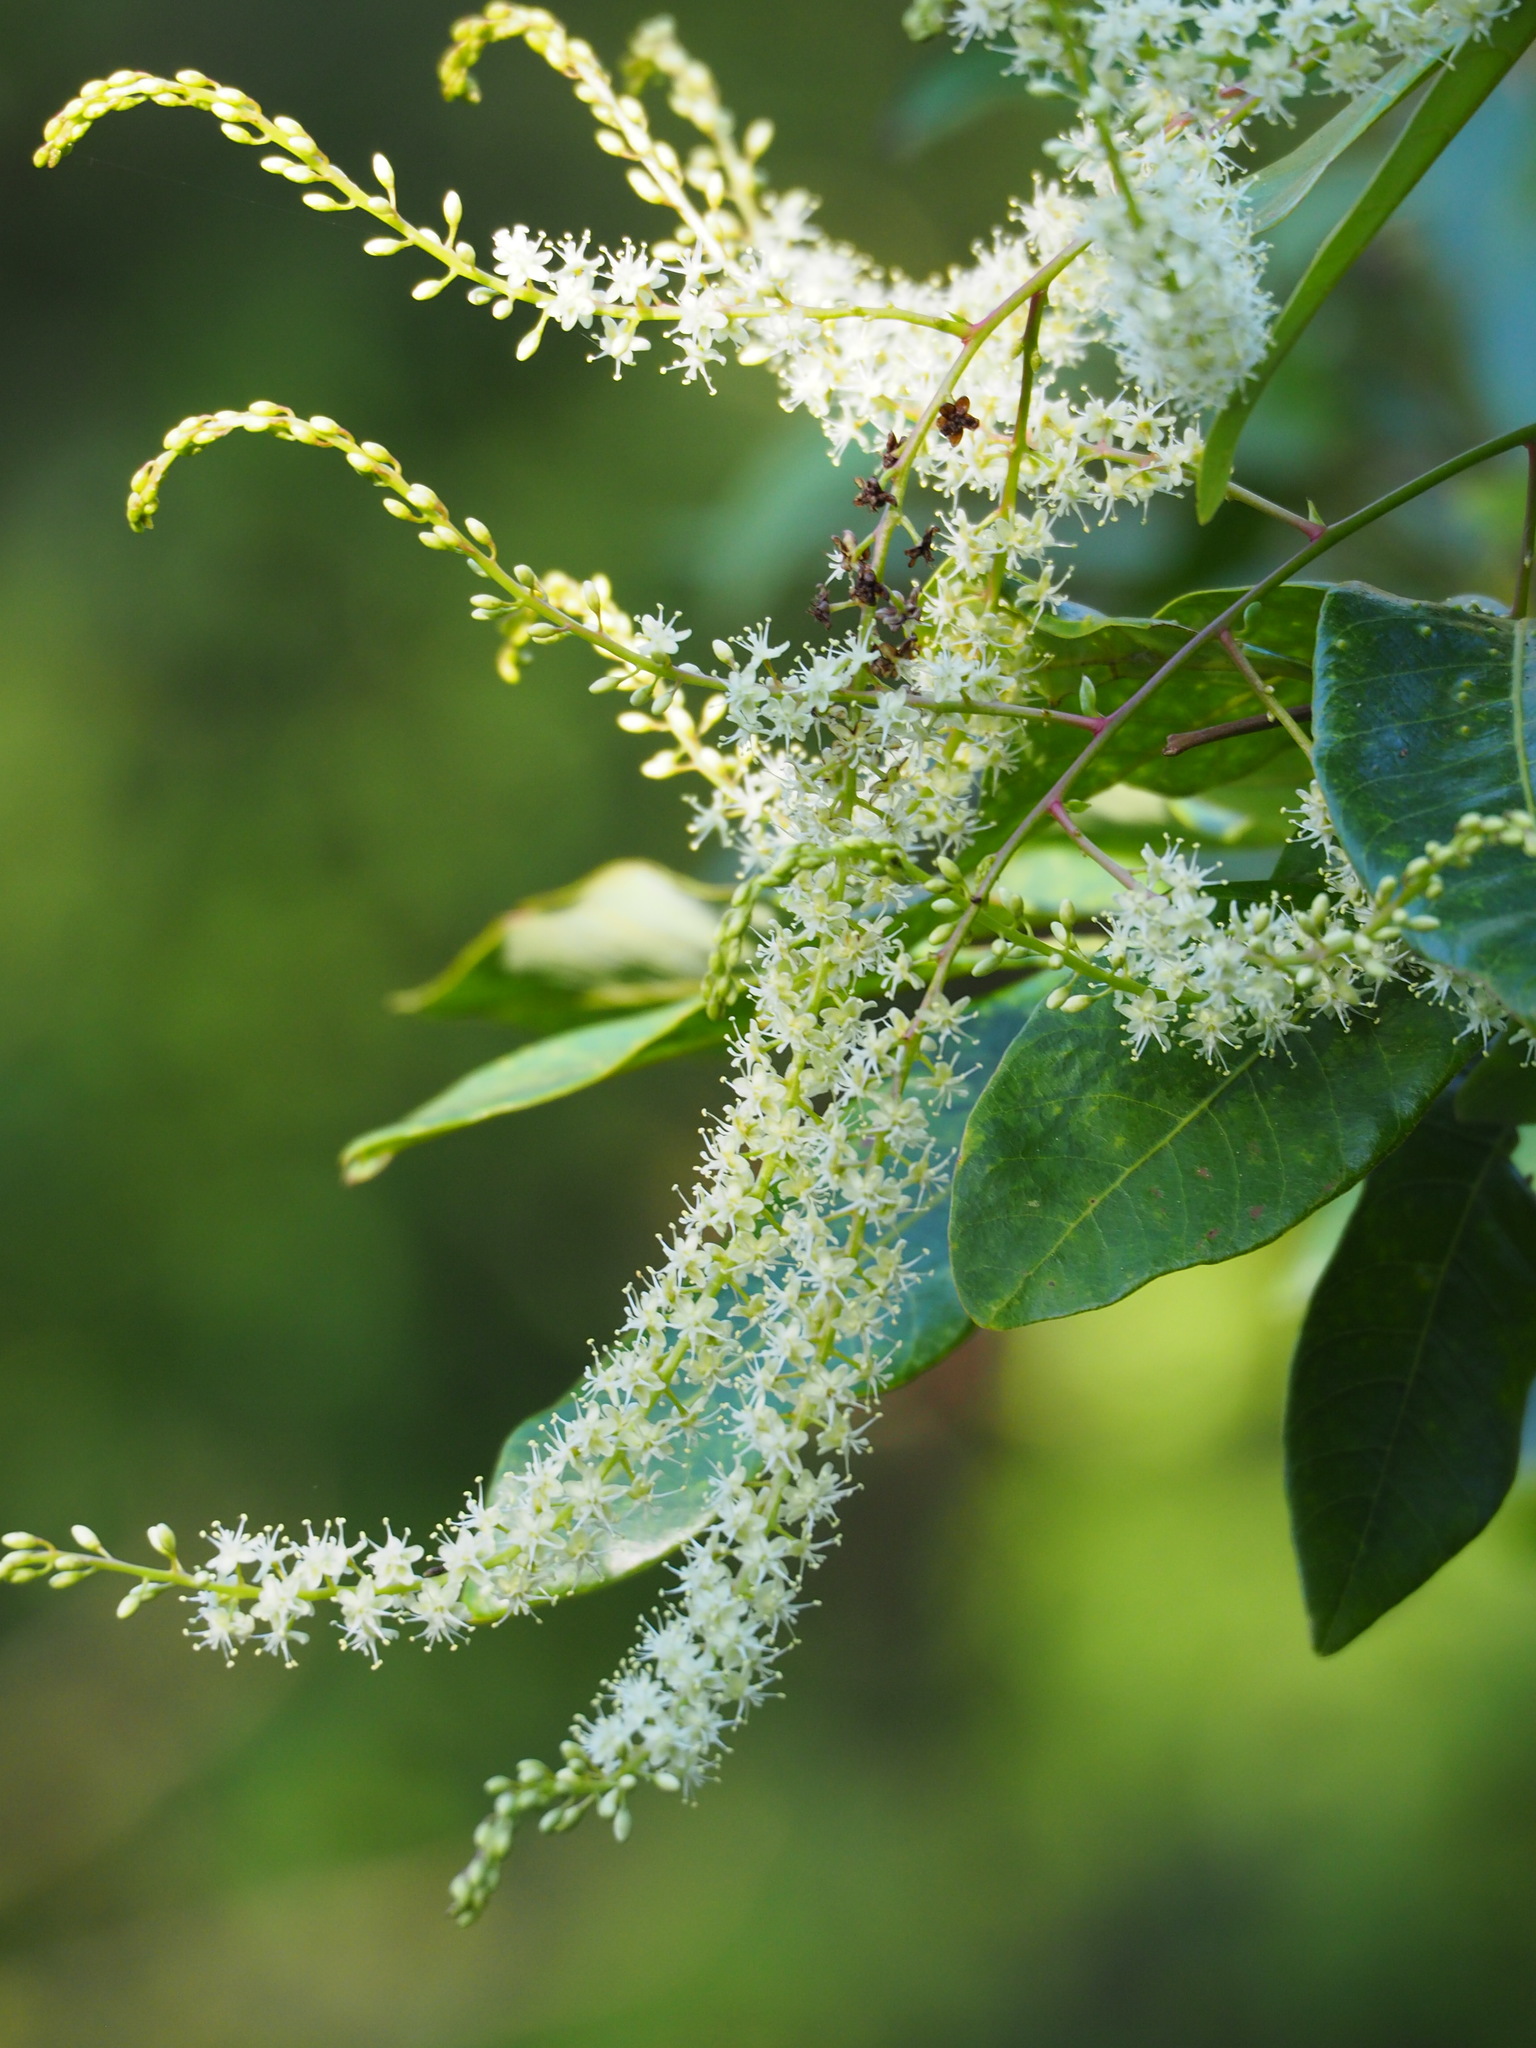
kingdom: Plantae
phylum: Tracheophyta
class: Magnoliopsida
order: Caryophyllales
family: Basellaceae
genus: Anredera
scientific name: Anredera cordifolia
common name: Heartleaf madeiravine
